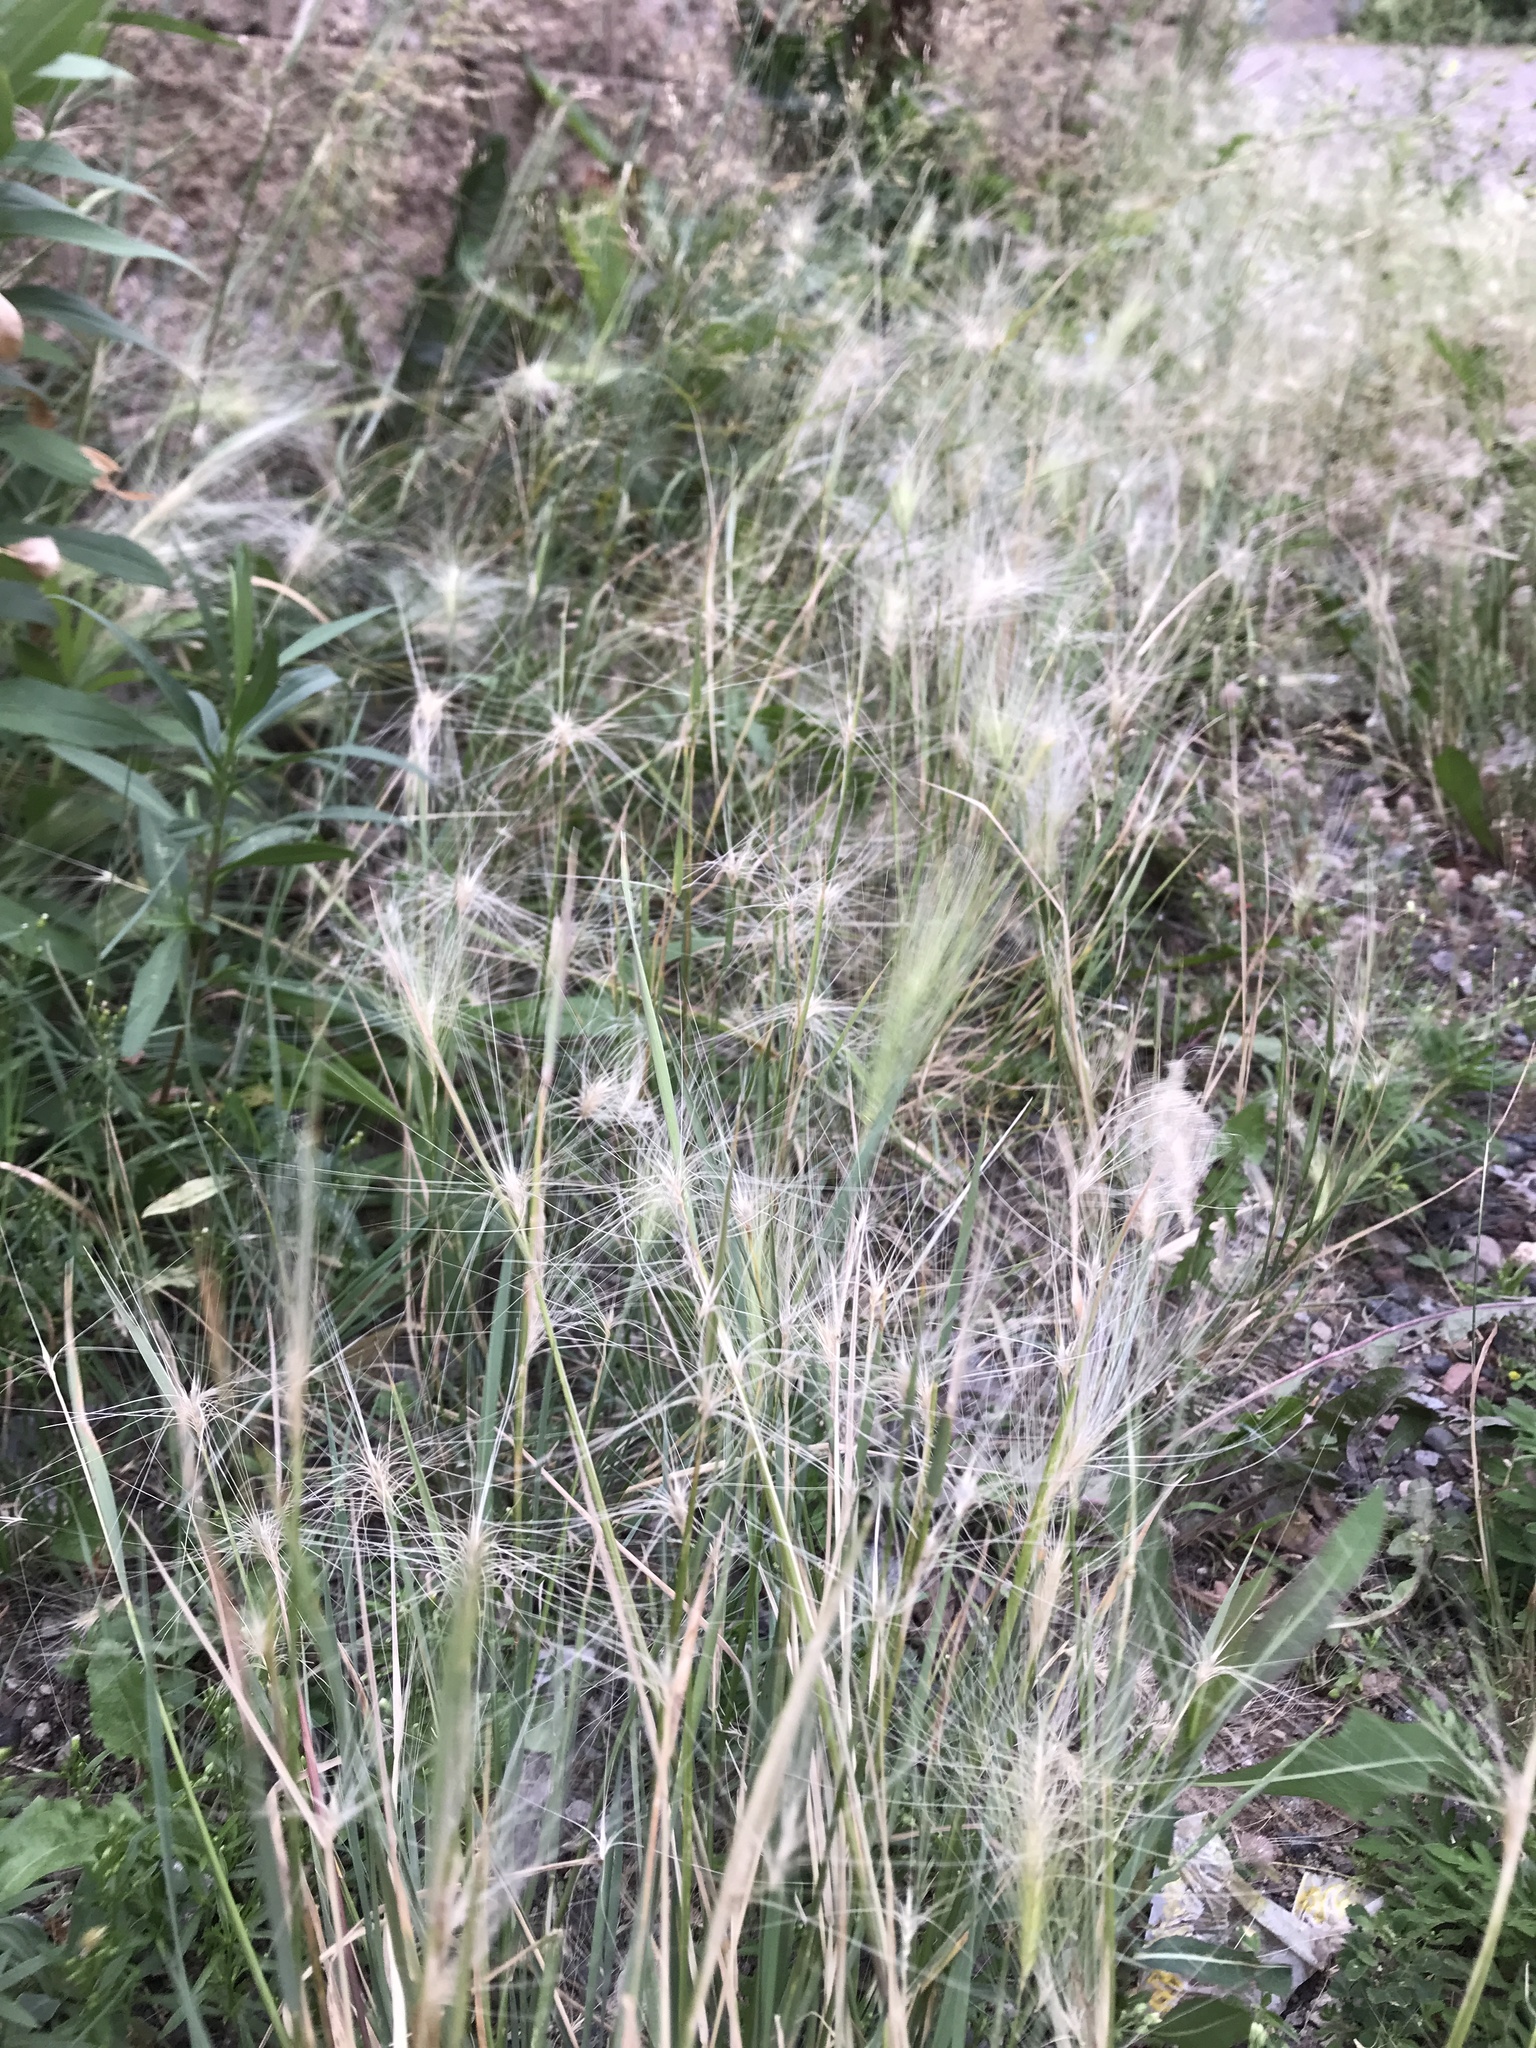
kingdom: Plantae
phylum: Tracheophyta
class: Liliopsida
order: Poales
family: Poaceae
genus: Hordeum
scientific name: Hordeum jubatum
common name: Foxtail barley
